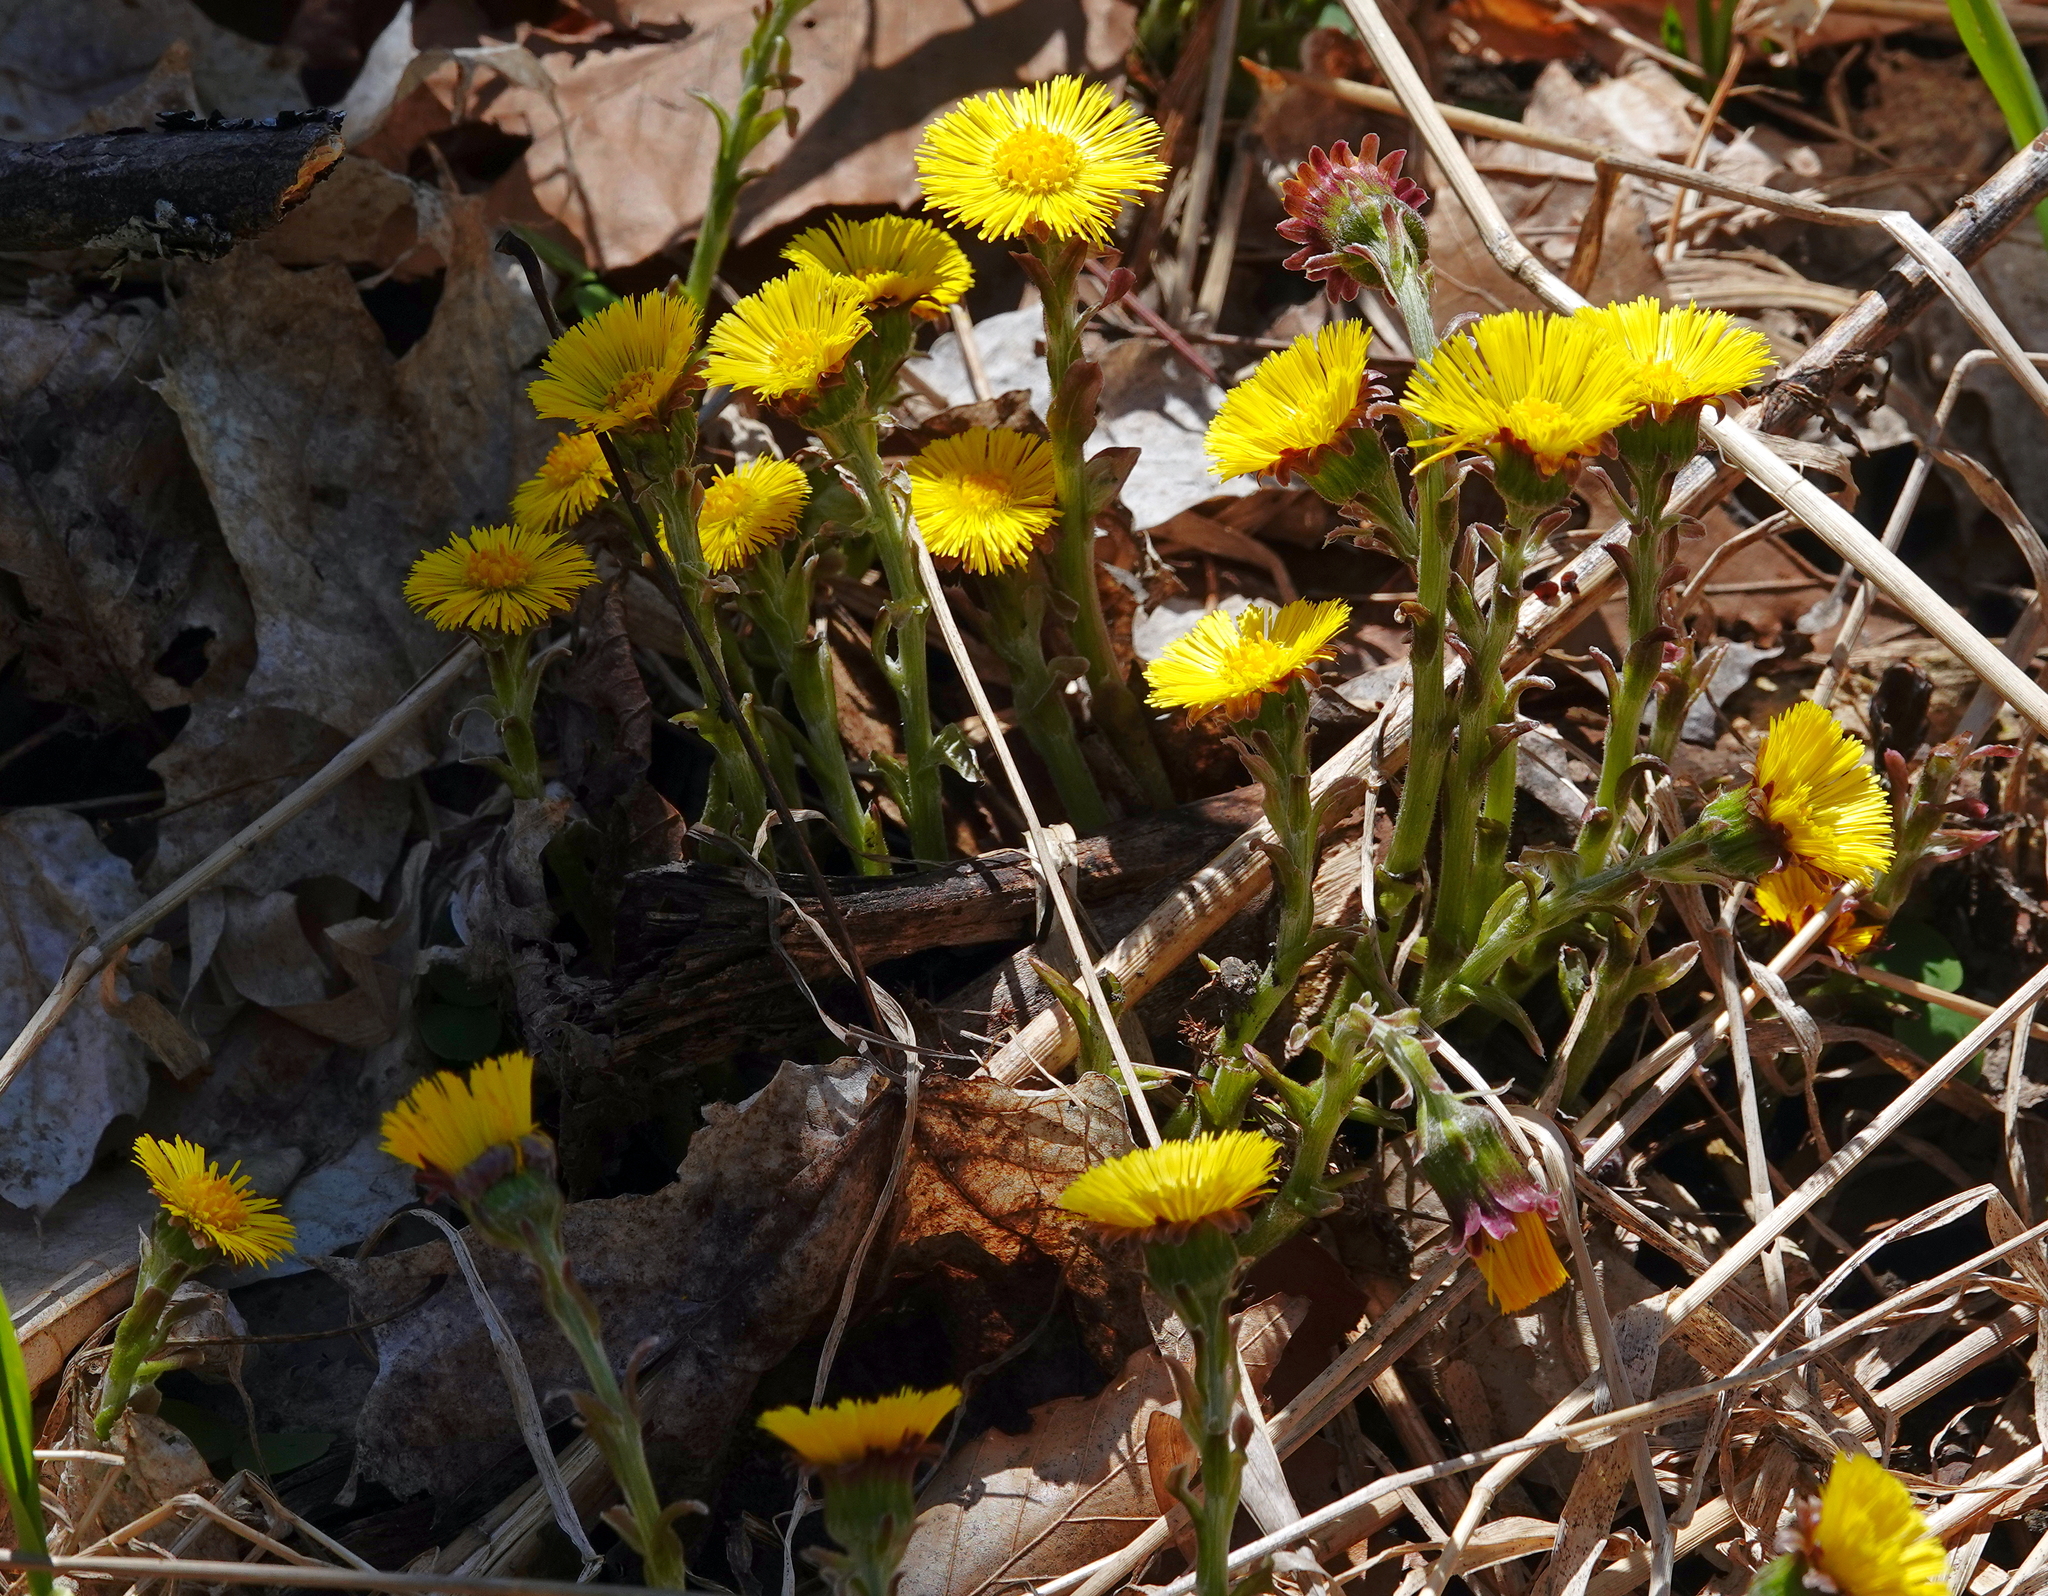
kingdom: Plantae
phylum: Tracheophyta
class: Magnoliopsida
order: Asterales
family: Asteraceae
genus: Tussilago
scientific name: Tussilago farfara
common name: Coltsfoot
